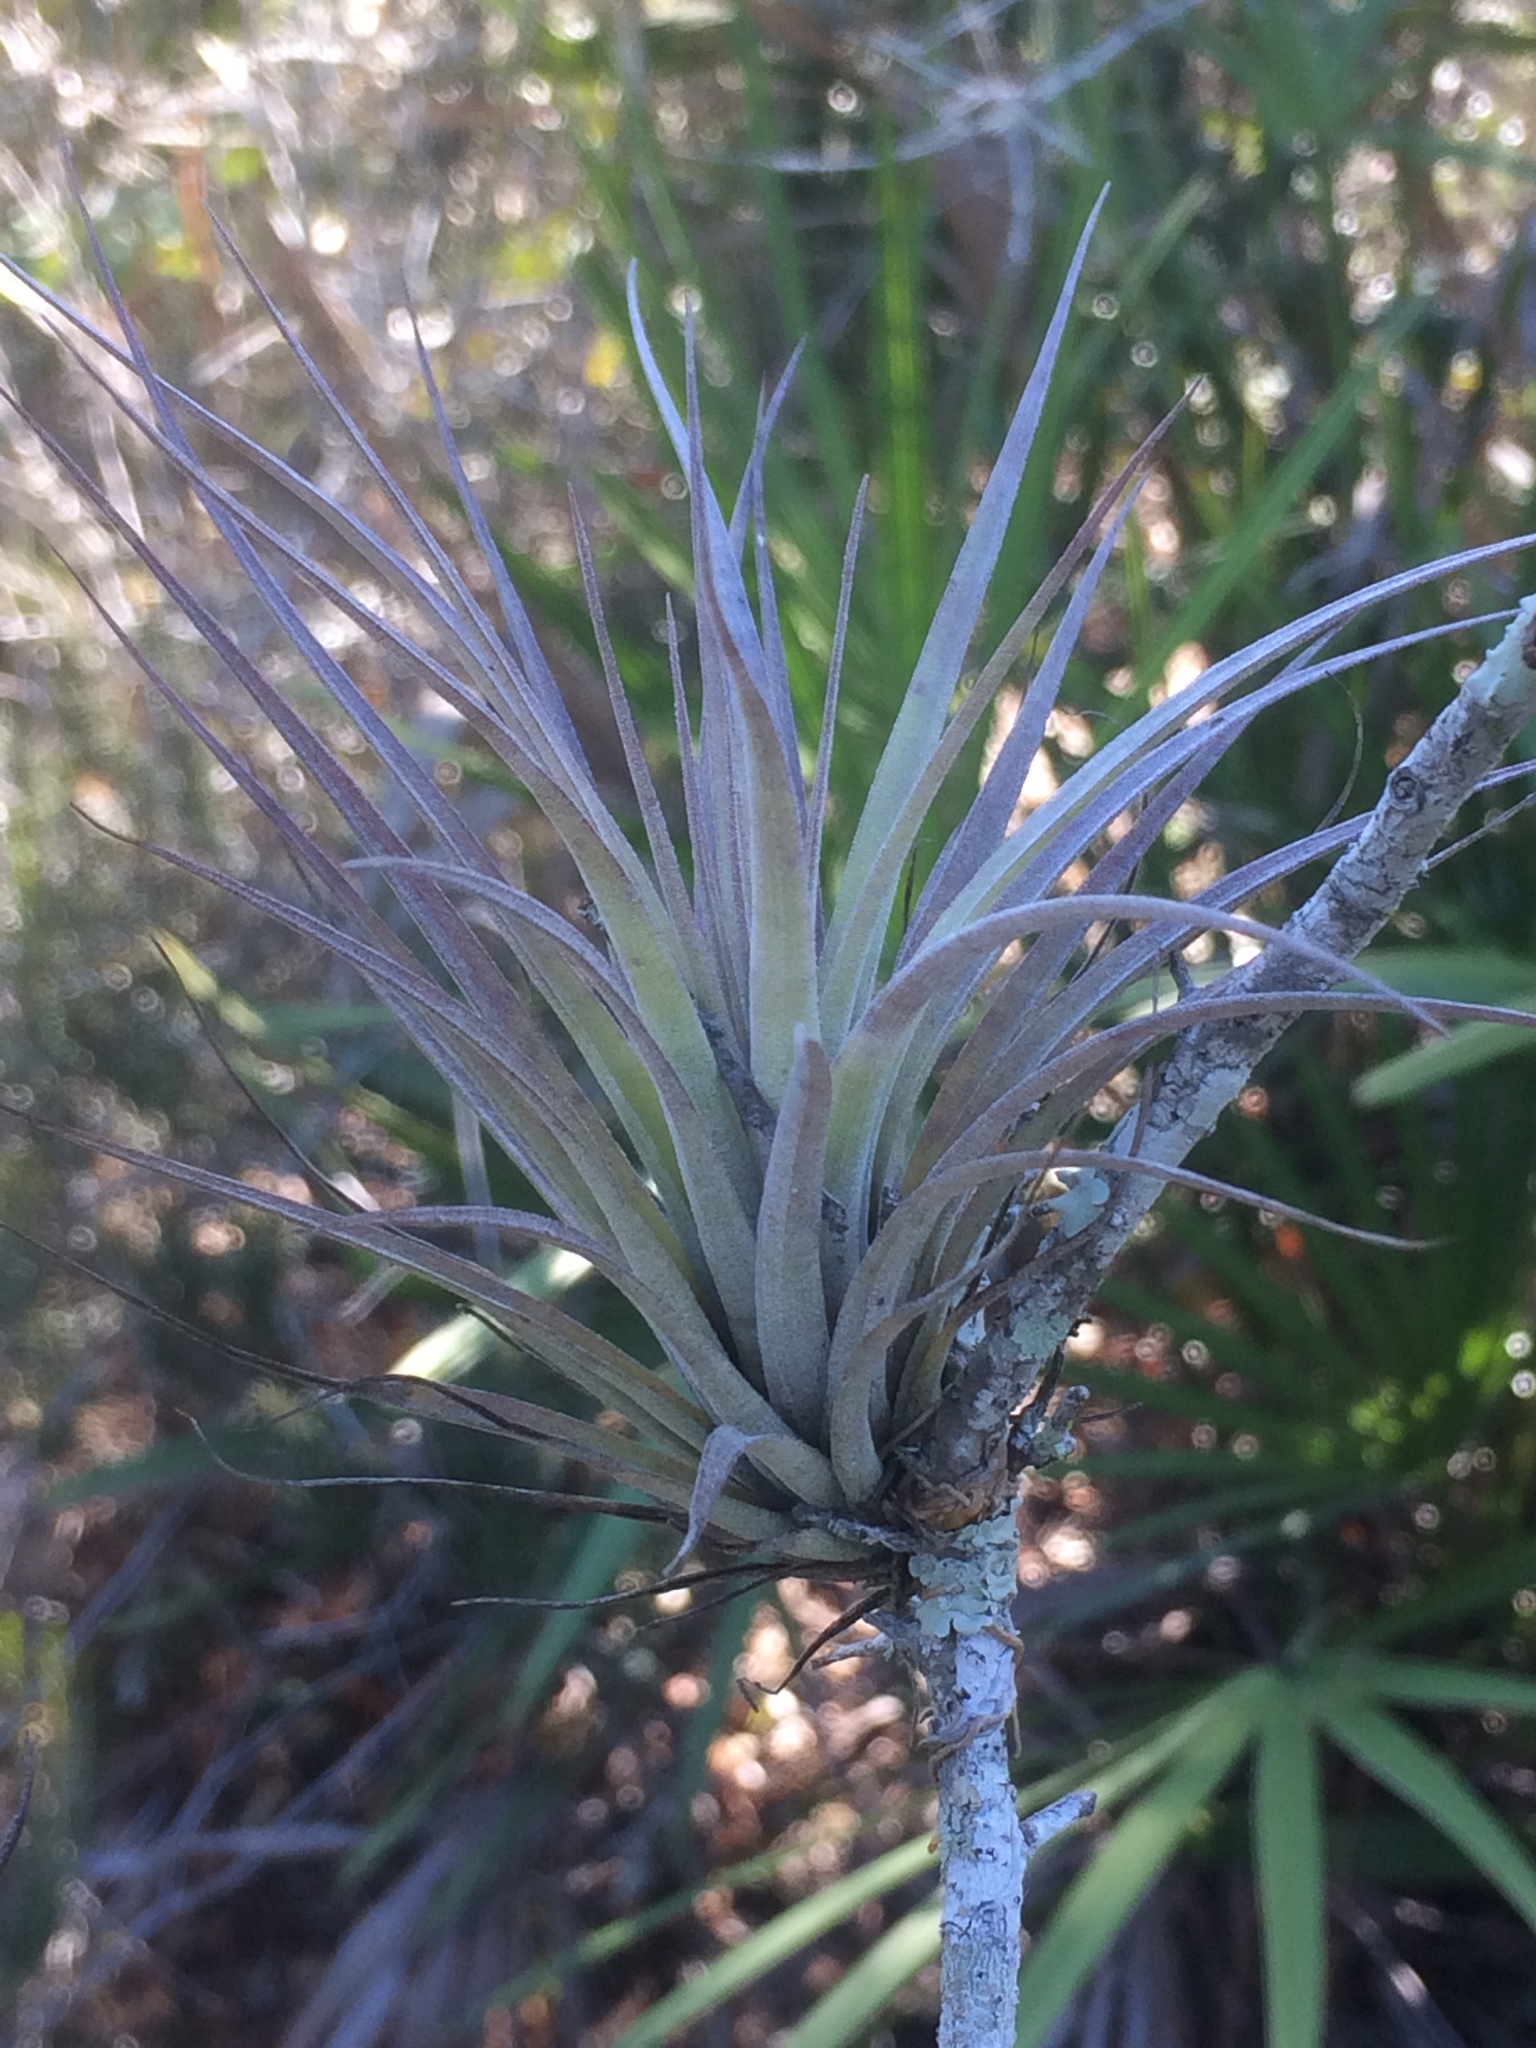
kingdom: Plantae
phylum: Tracheophyta
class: Liliopsida
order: Poales
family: Bromeliaceae
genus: Tillandsia
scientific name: Tillandsia fasciculata
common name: Giant airplant
